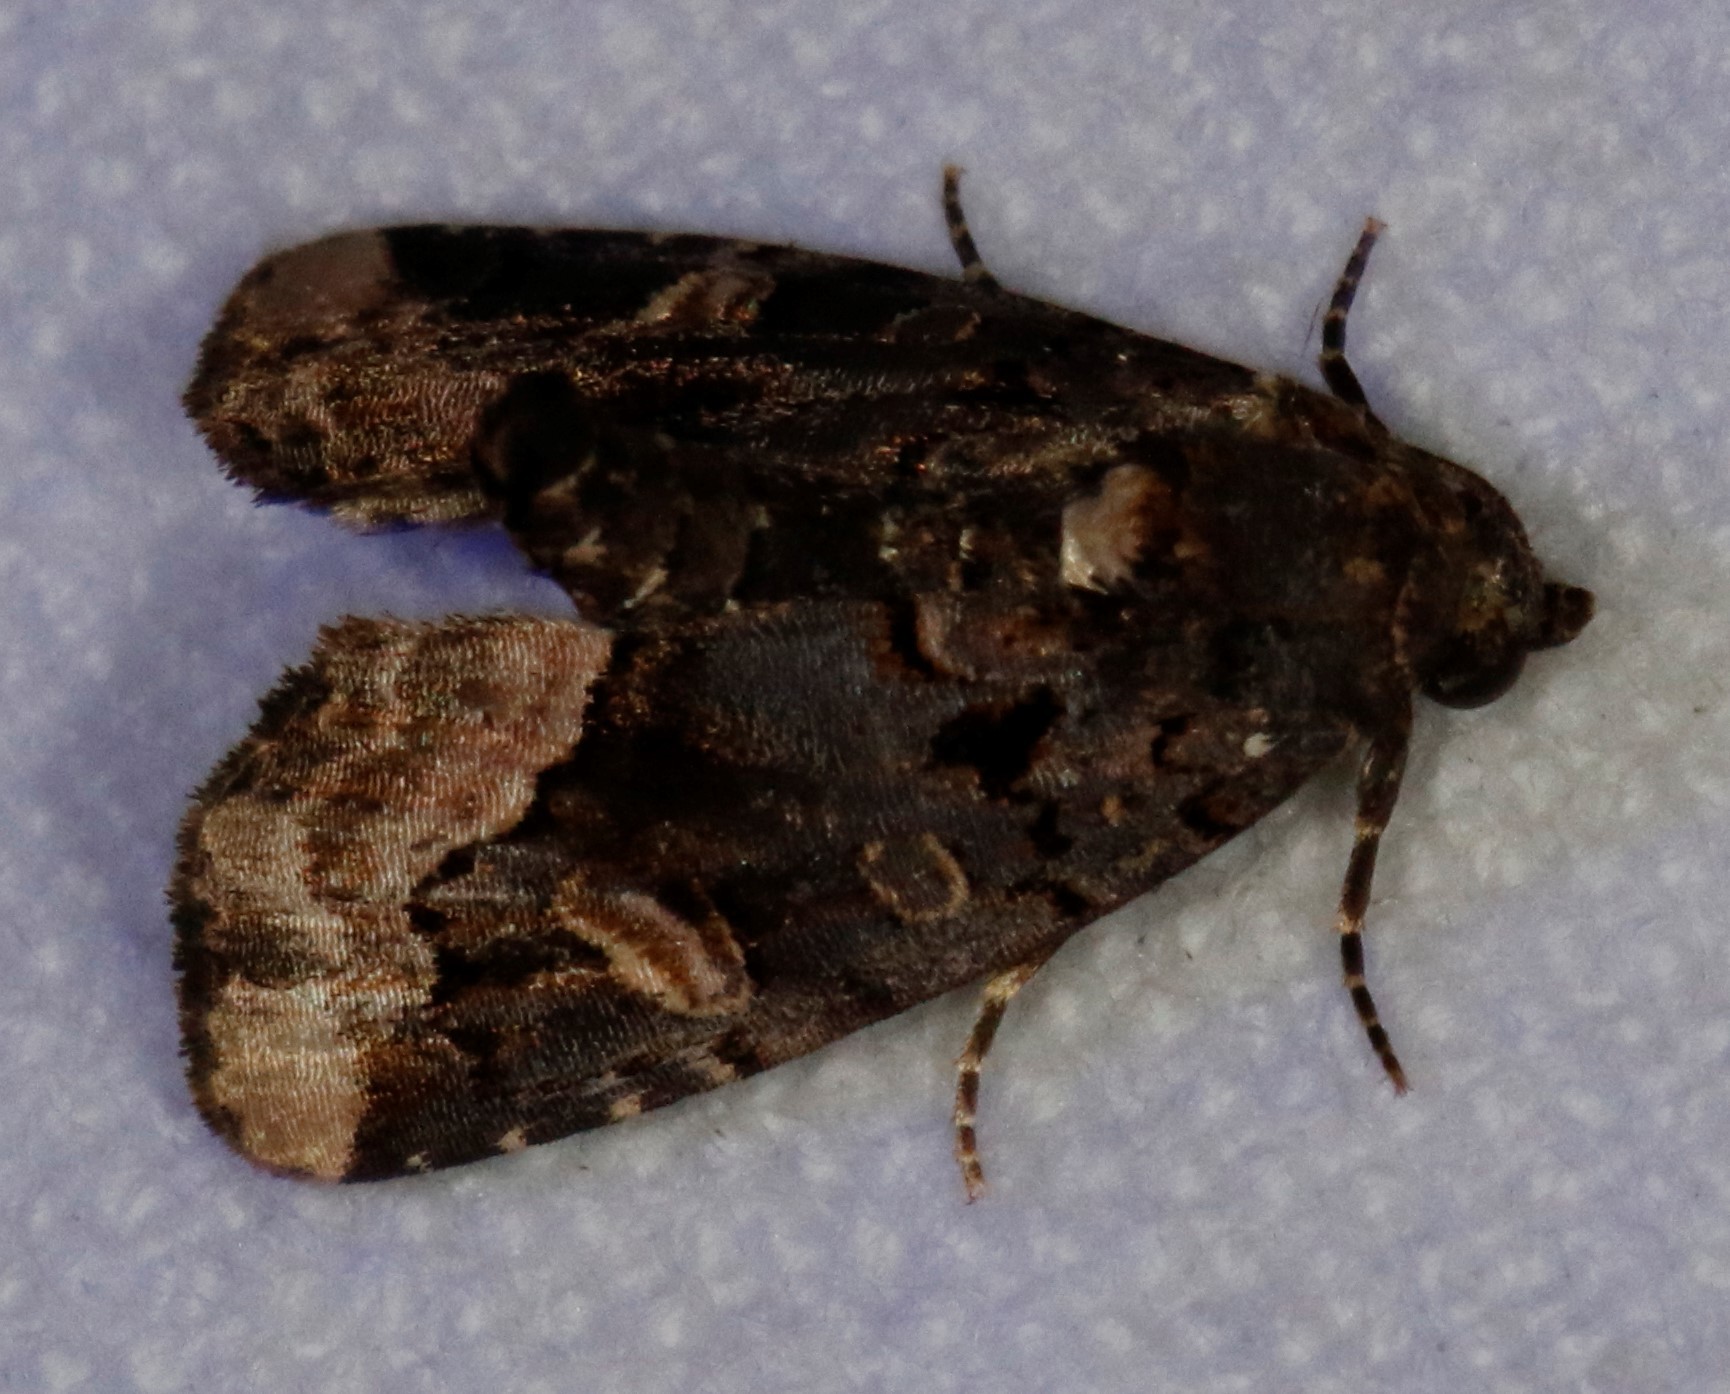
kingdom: Animalia
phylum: Arthropoda
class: Insecta
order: Lepidoptera
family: Noctuidae
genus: Homophoberia
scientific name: Homophoberia apicosa
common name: Black wedge-spot
